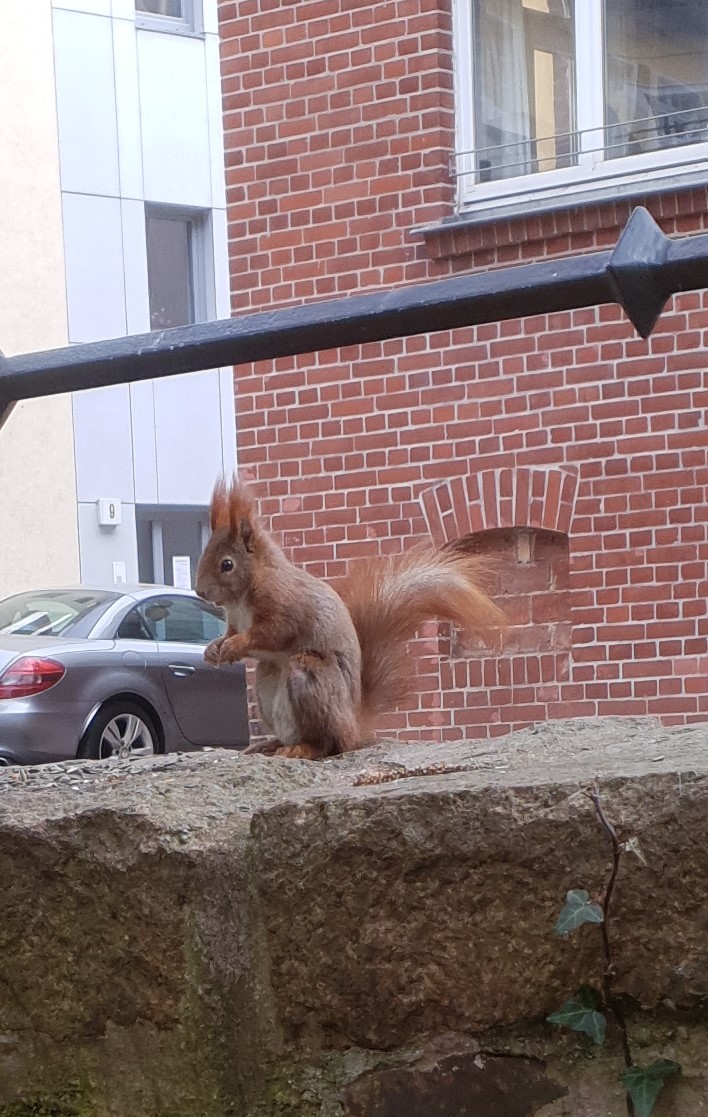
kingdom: Animalia
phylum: Chordata
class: Mammalia
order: Rodentia
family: Sciuridae
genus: Sciurus
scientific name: Sciurus vulgaris
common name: Eurasian red squirrel
